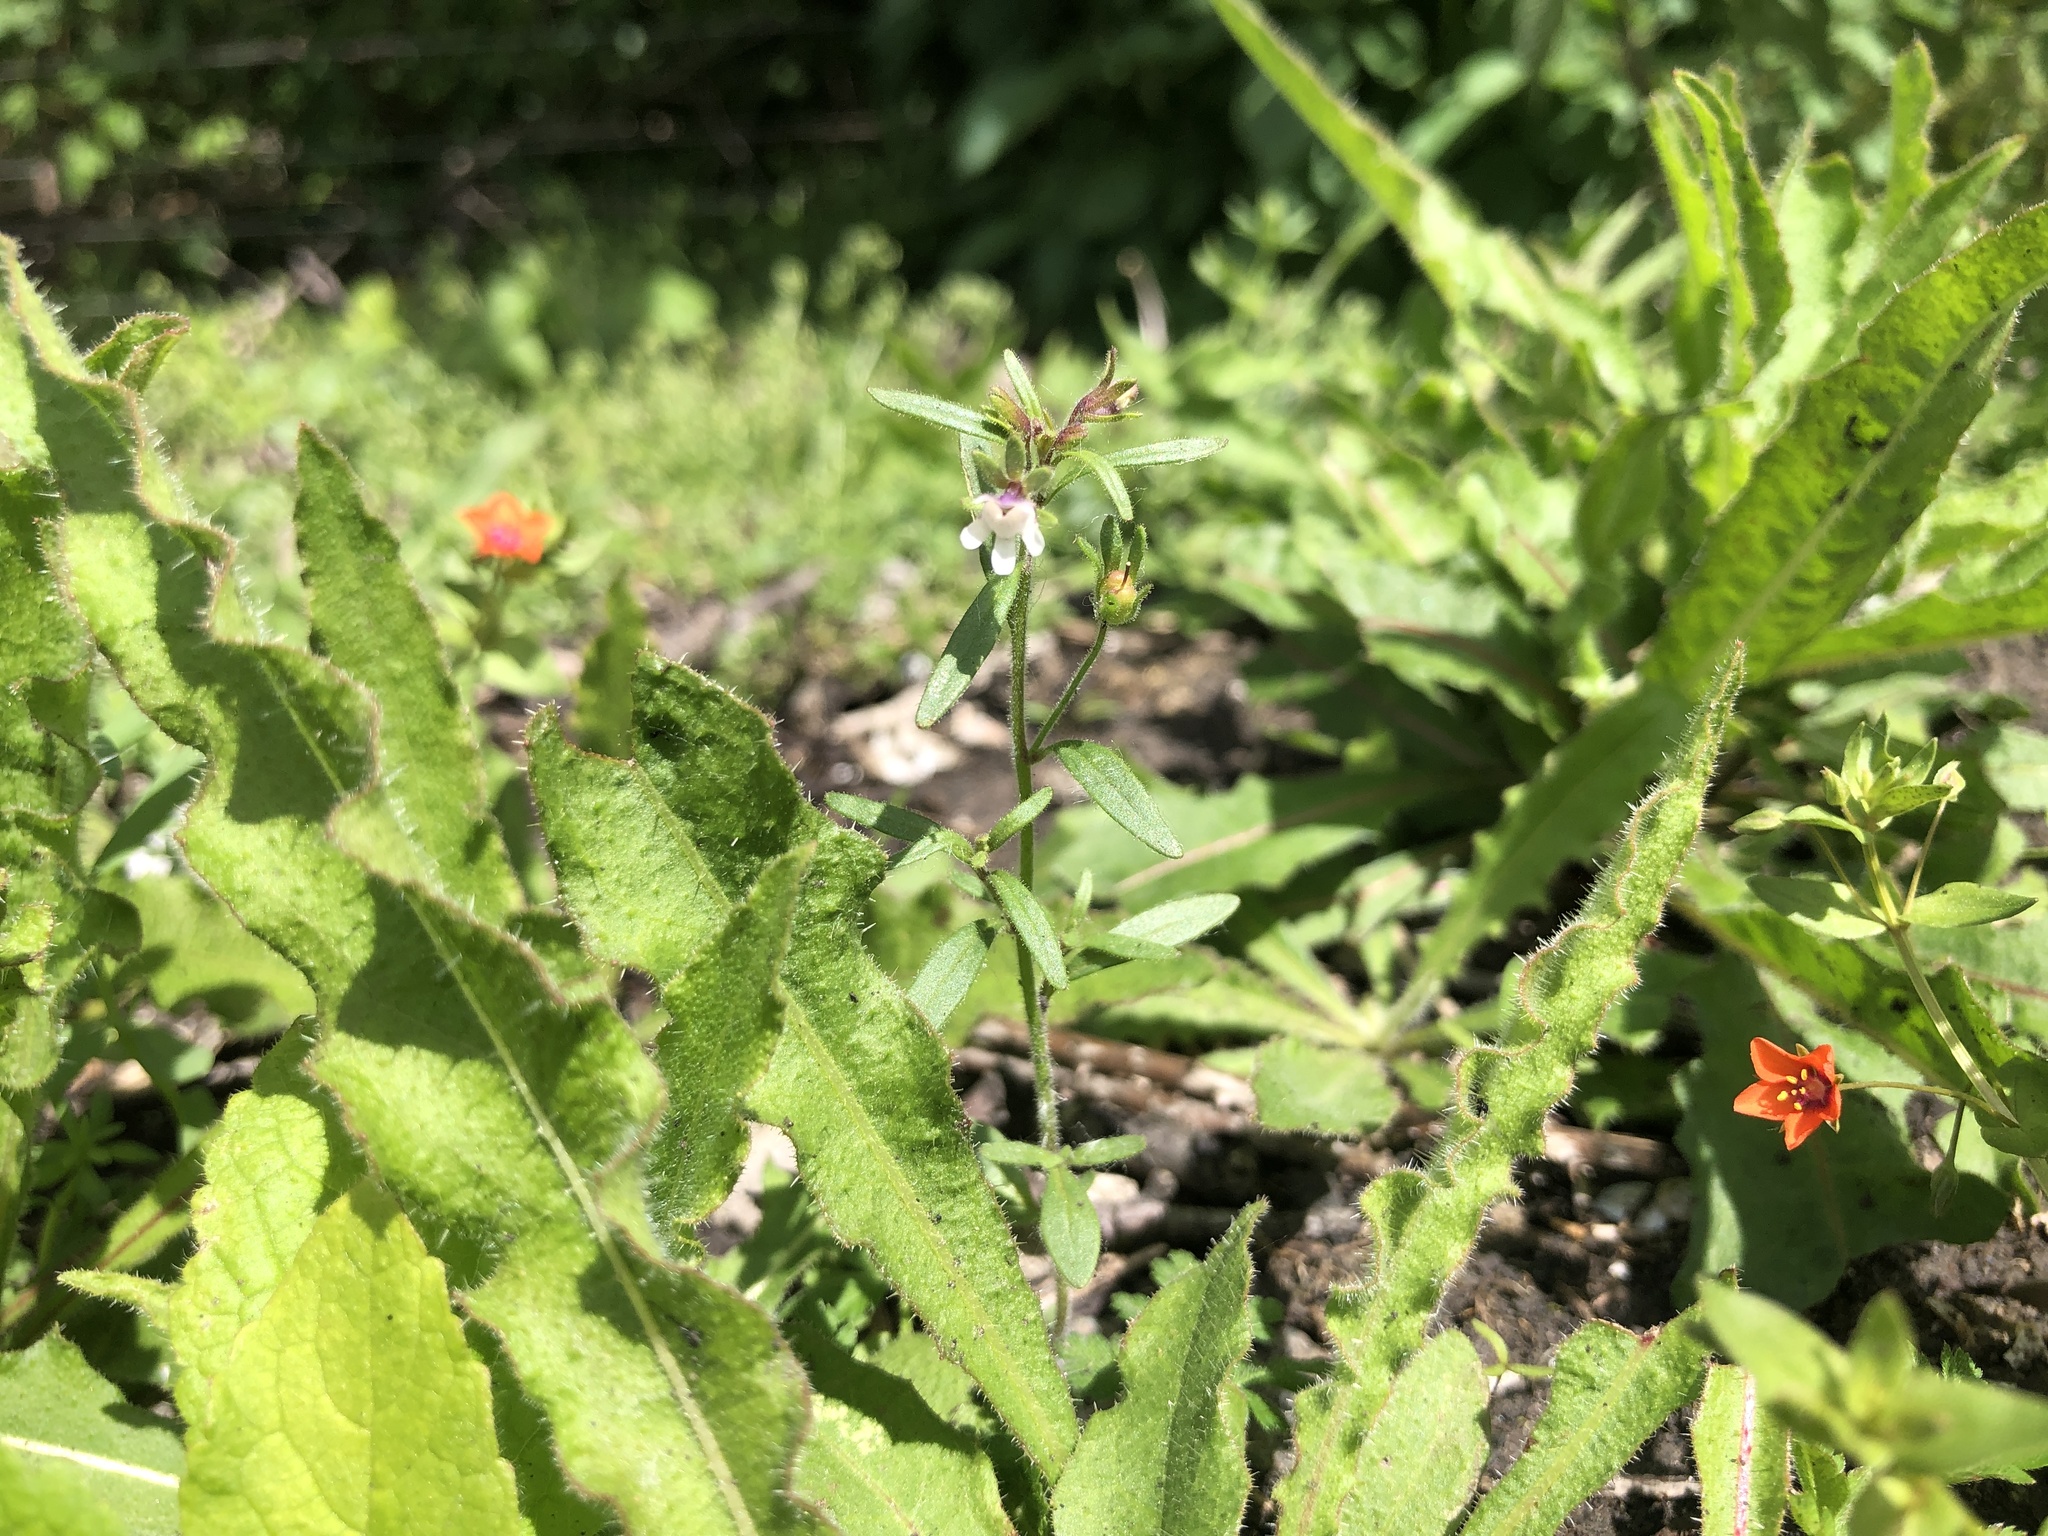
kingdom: Plantae
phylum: Tracheophyta
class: Magnoliopsida
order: Lamiales
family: Plantaginaceae
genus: Chaenorhinum
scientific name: Chaenorhinum minus
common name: Dwarf snapdragon
